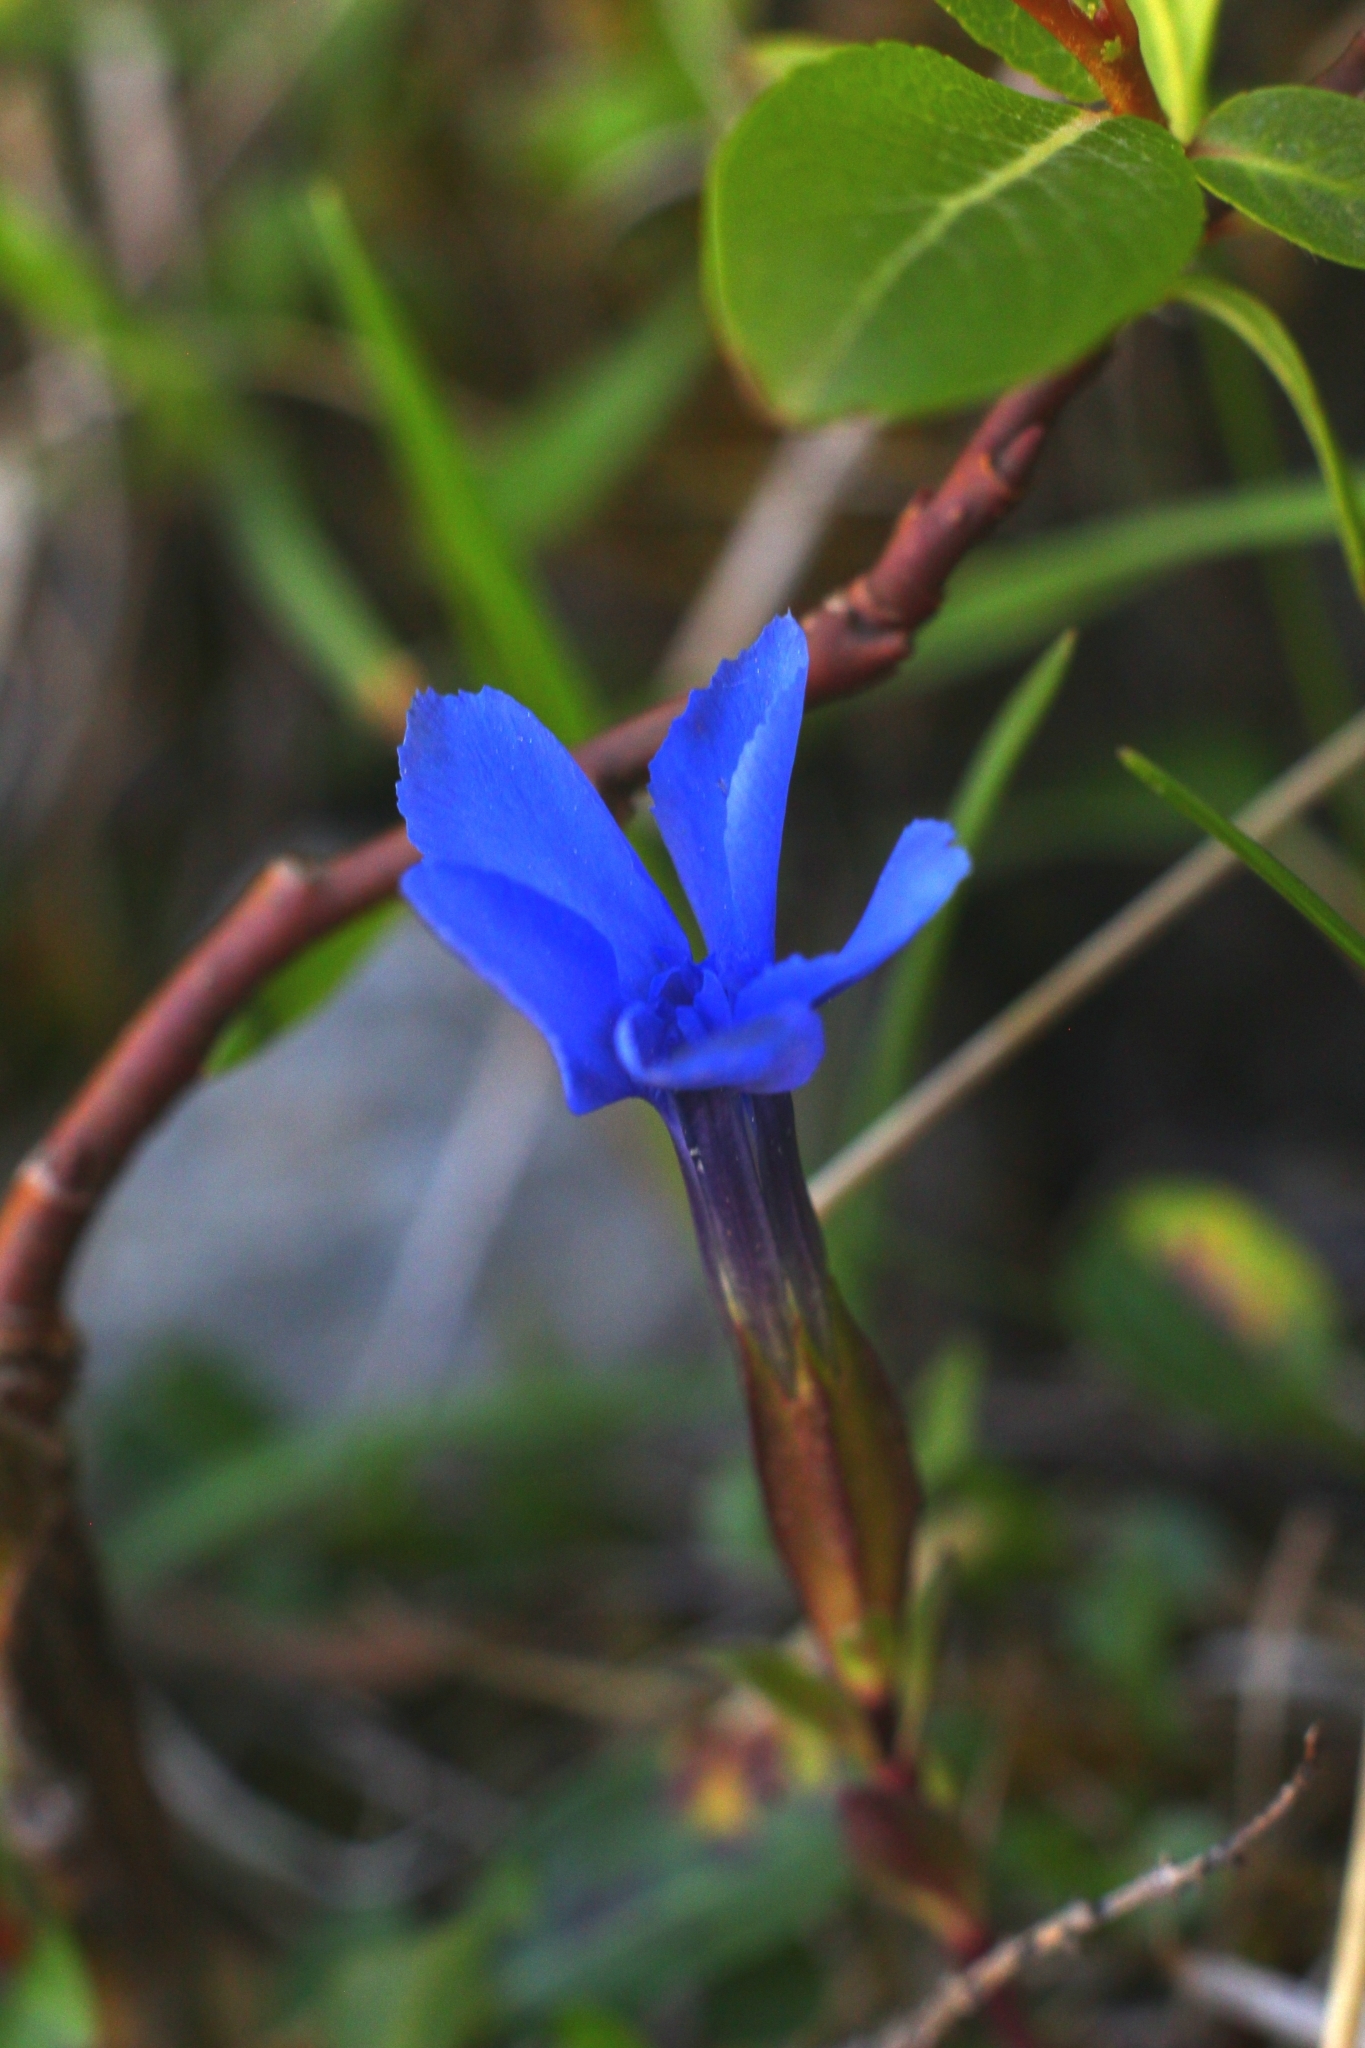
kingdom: Plantae
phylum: Tracheophyta
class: Magnoliopsida
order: Gentianales
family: Gentianaceae
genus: Gentiana
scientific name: Gentiana verna
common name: Spring gentian
